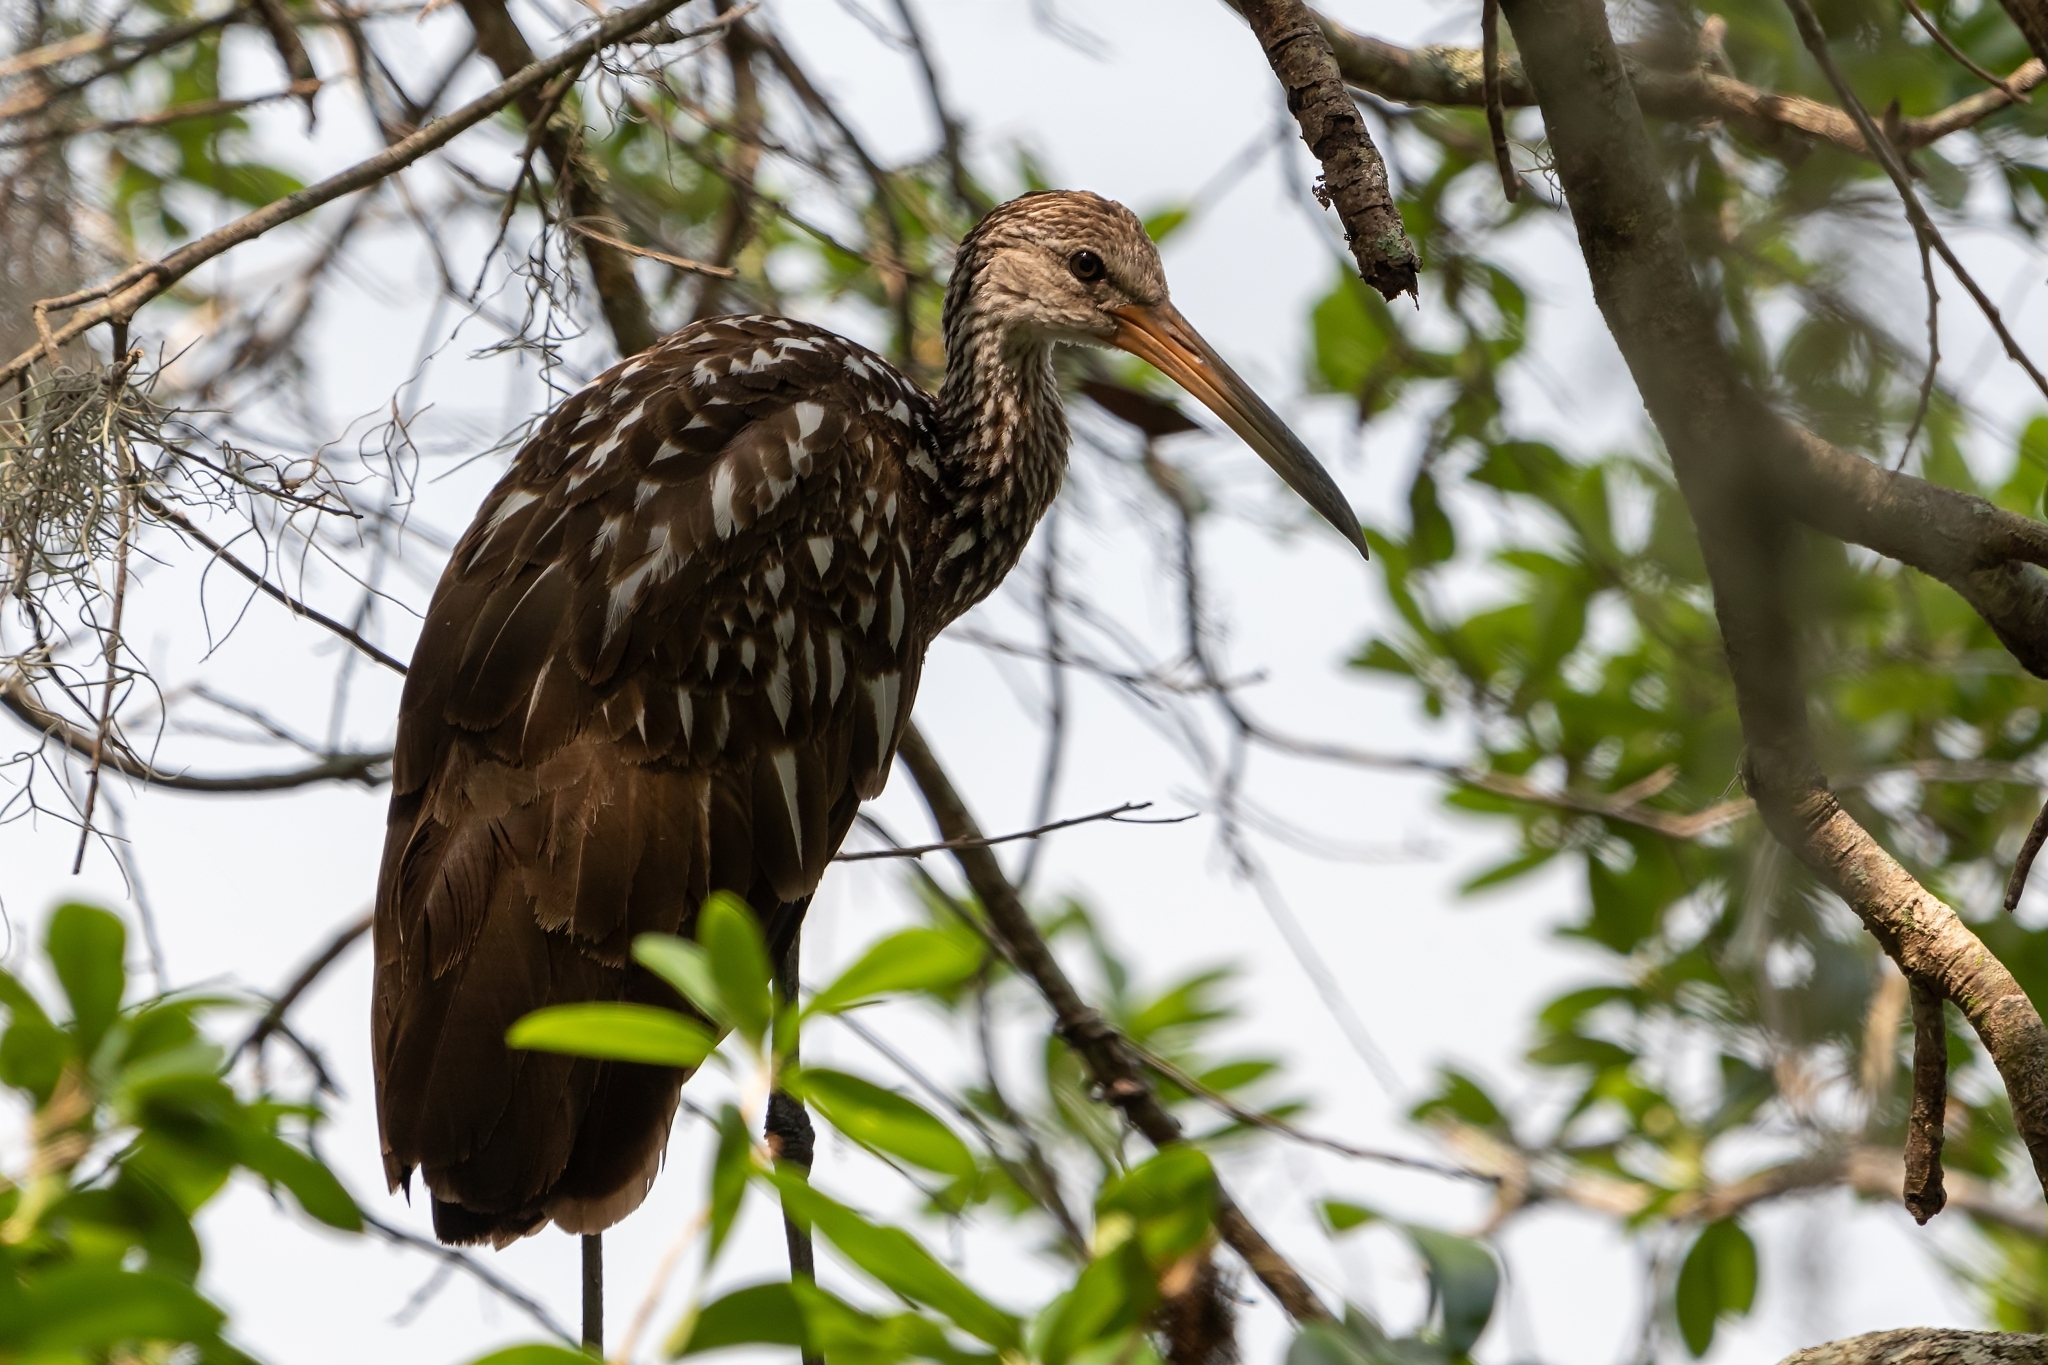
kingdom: Animalia
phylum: Chordata
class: Aves
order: Gruiformes
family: Aramidae
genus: Aramus
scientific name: Aramus guarauna
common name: Limpkin
